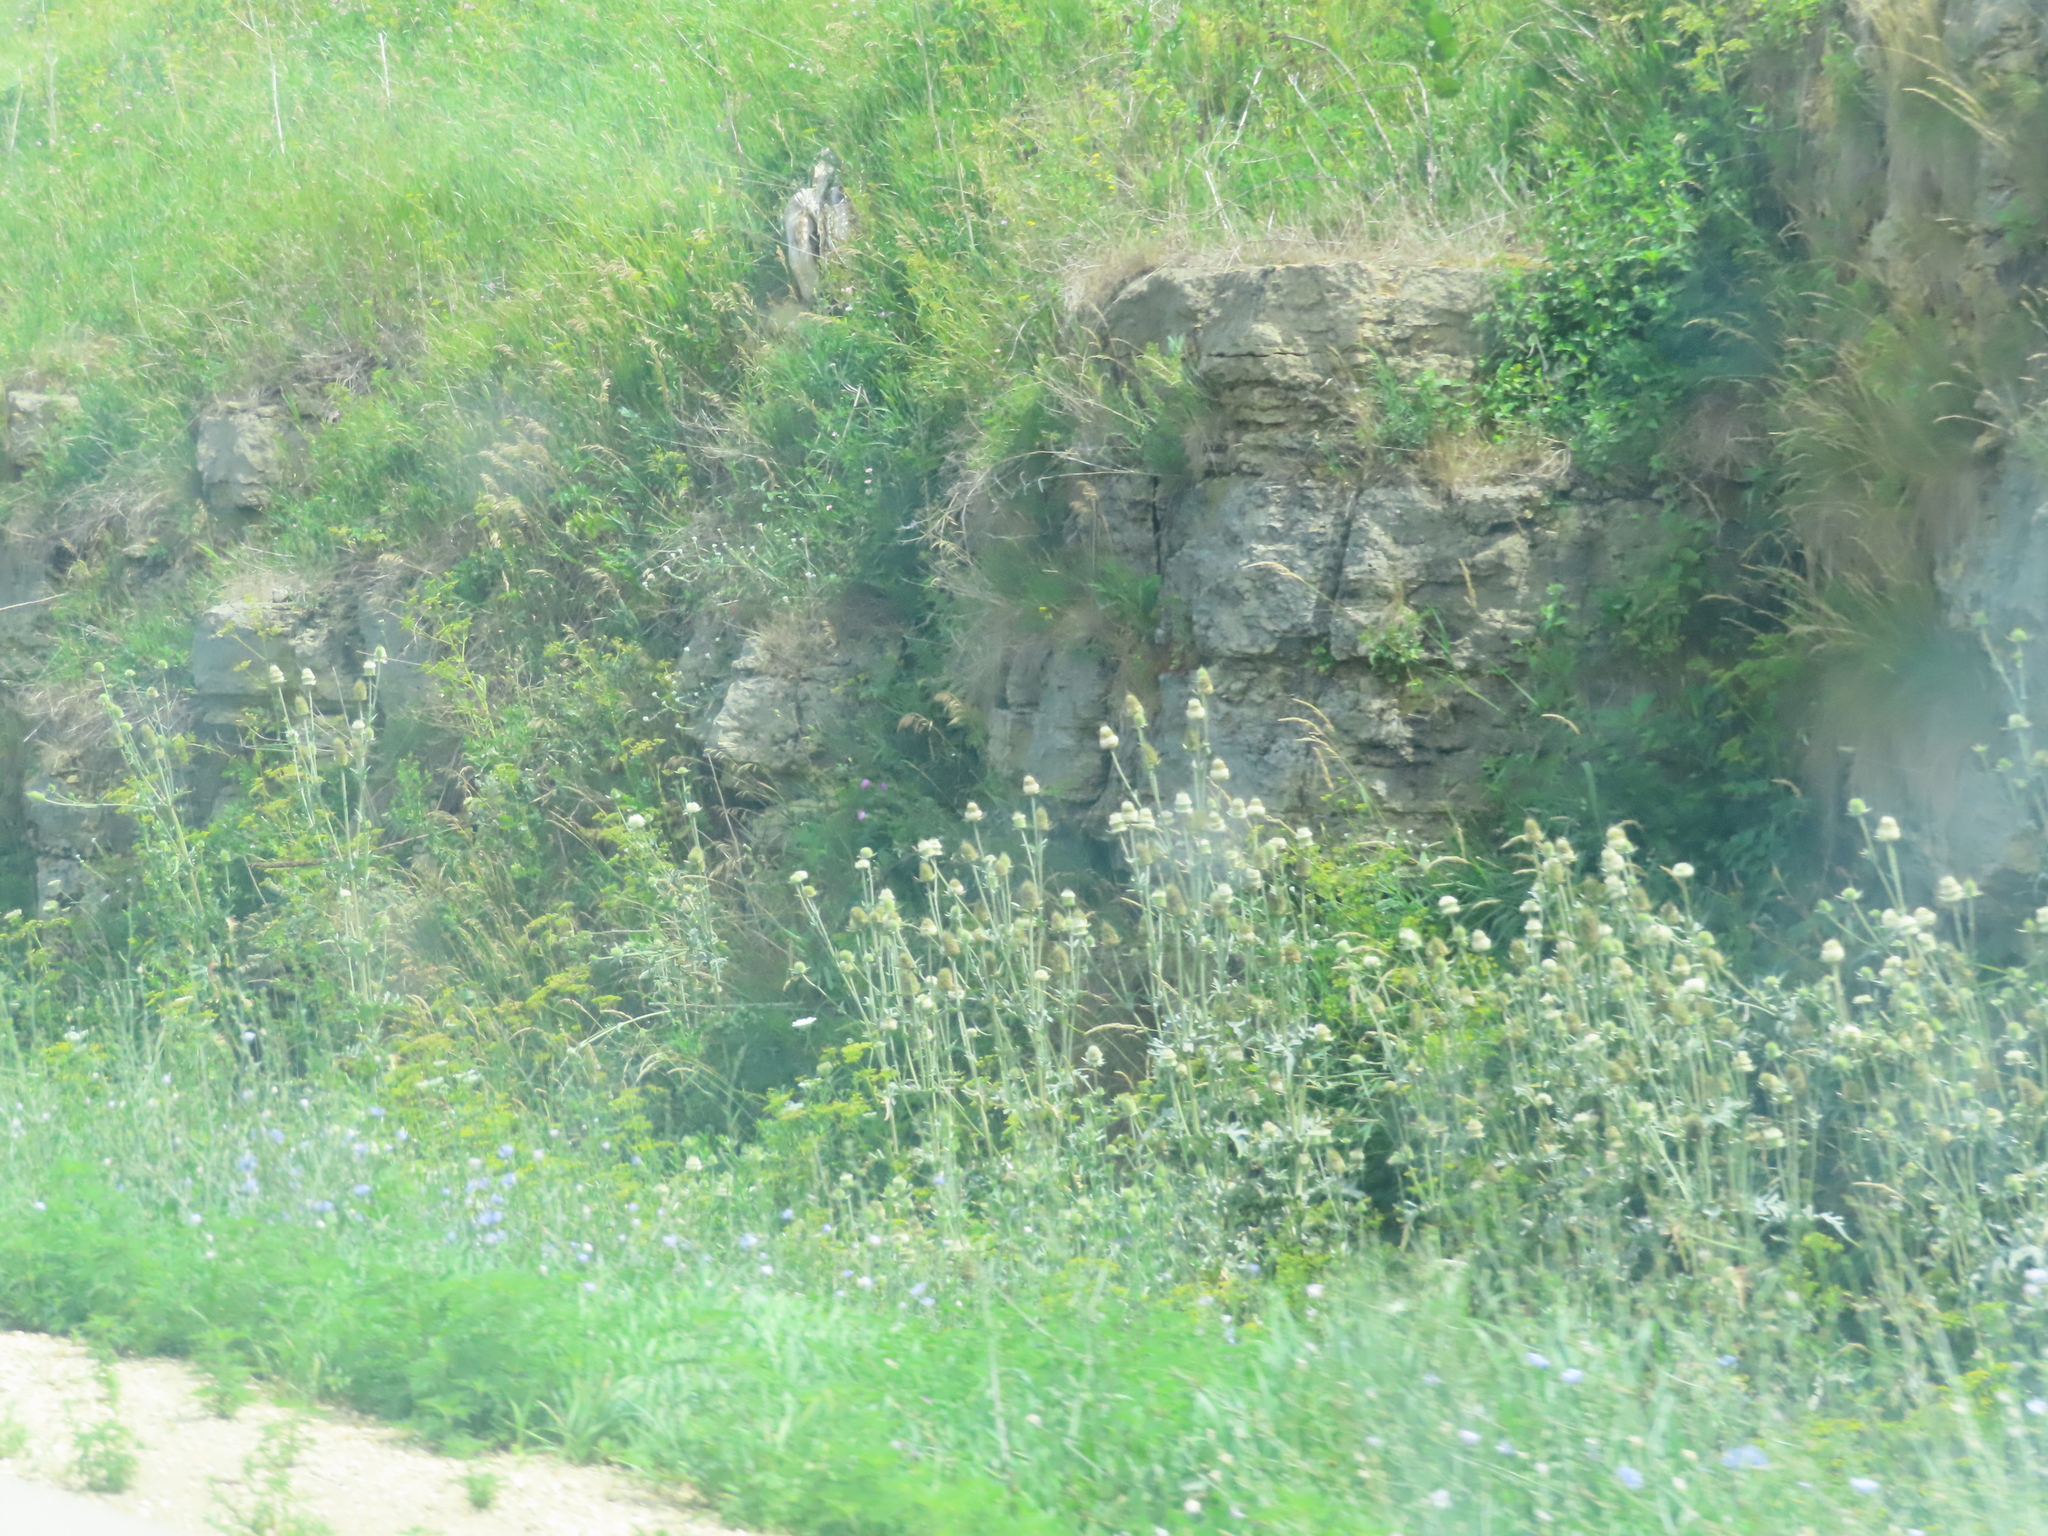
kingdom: Plantae
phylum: Tracheophyta
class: Magnoliopsida
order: Dipsacales
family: Caprifoliaceae
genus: Dipsacus
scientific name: Dipsacus laciniatus
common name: Cut-leaved teasel
